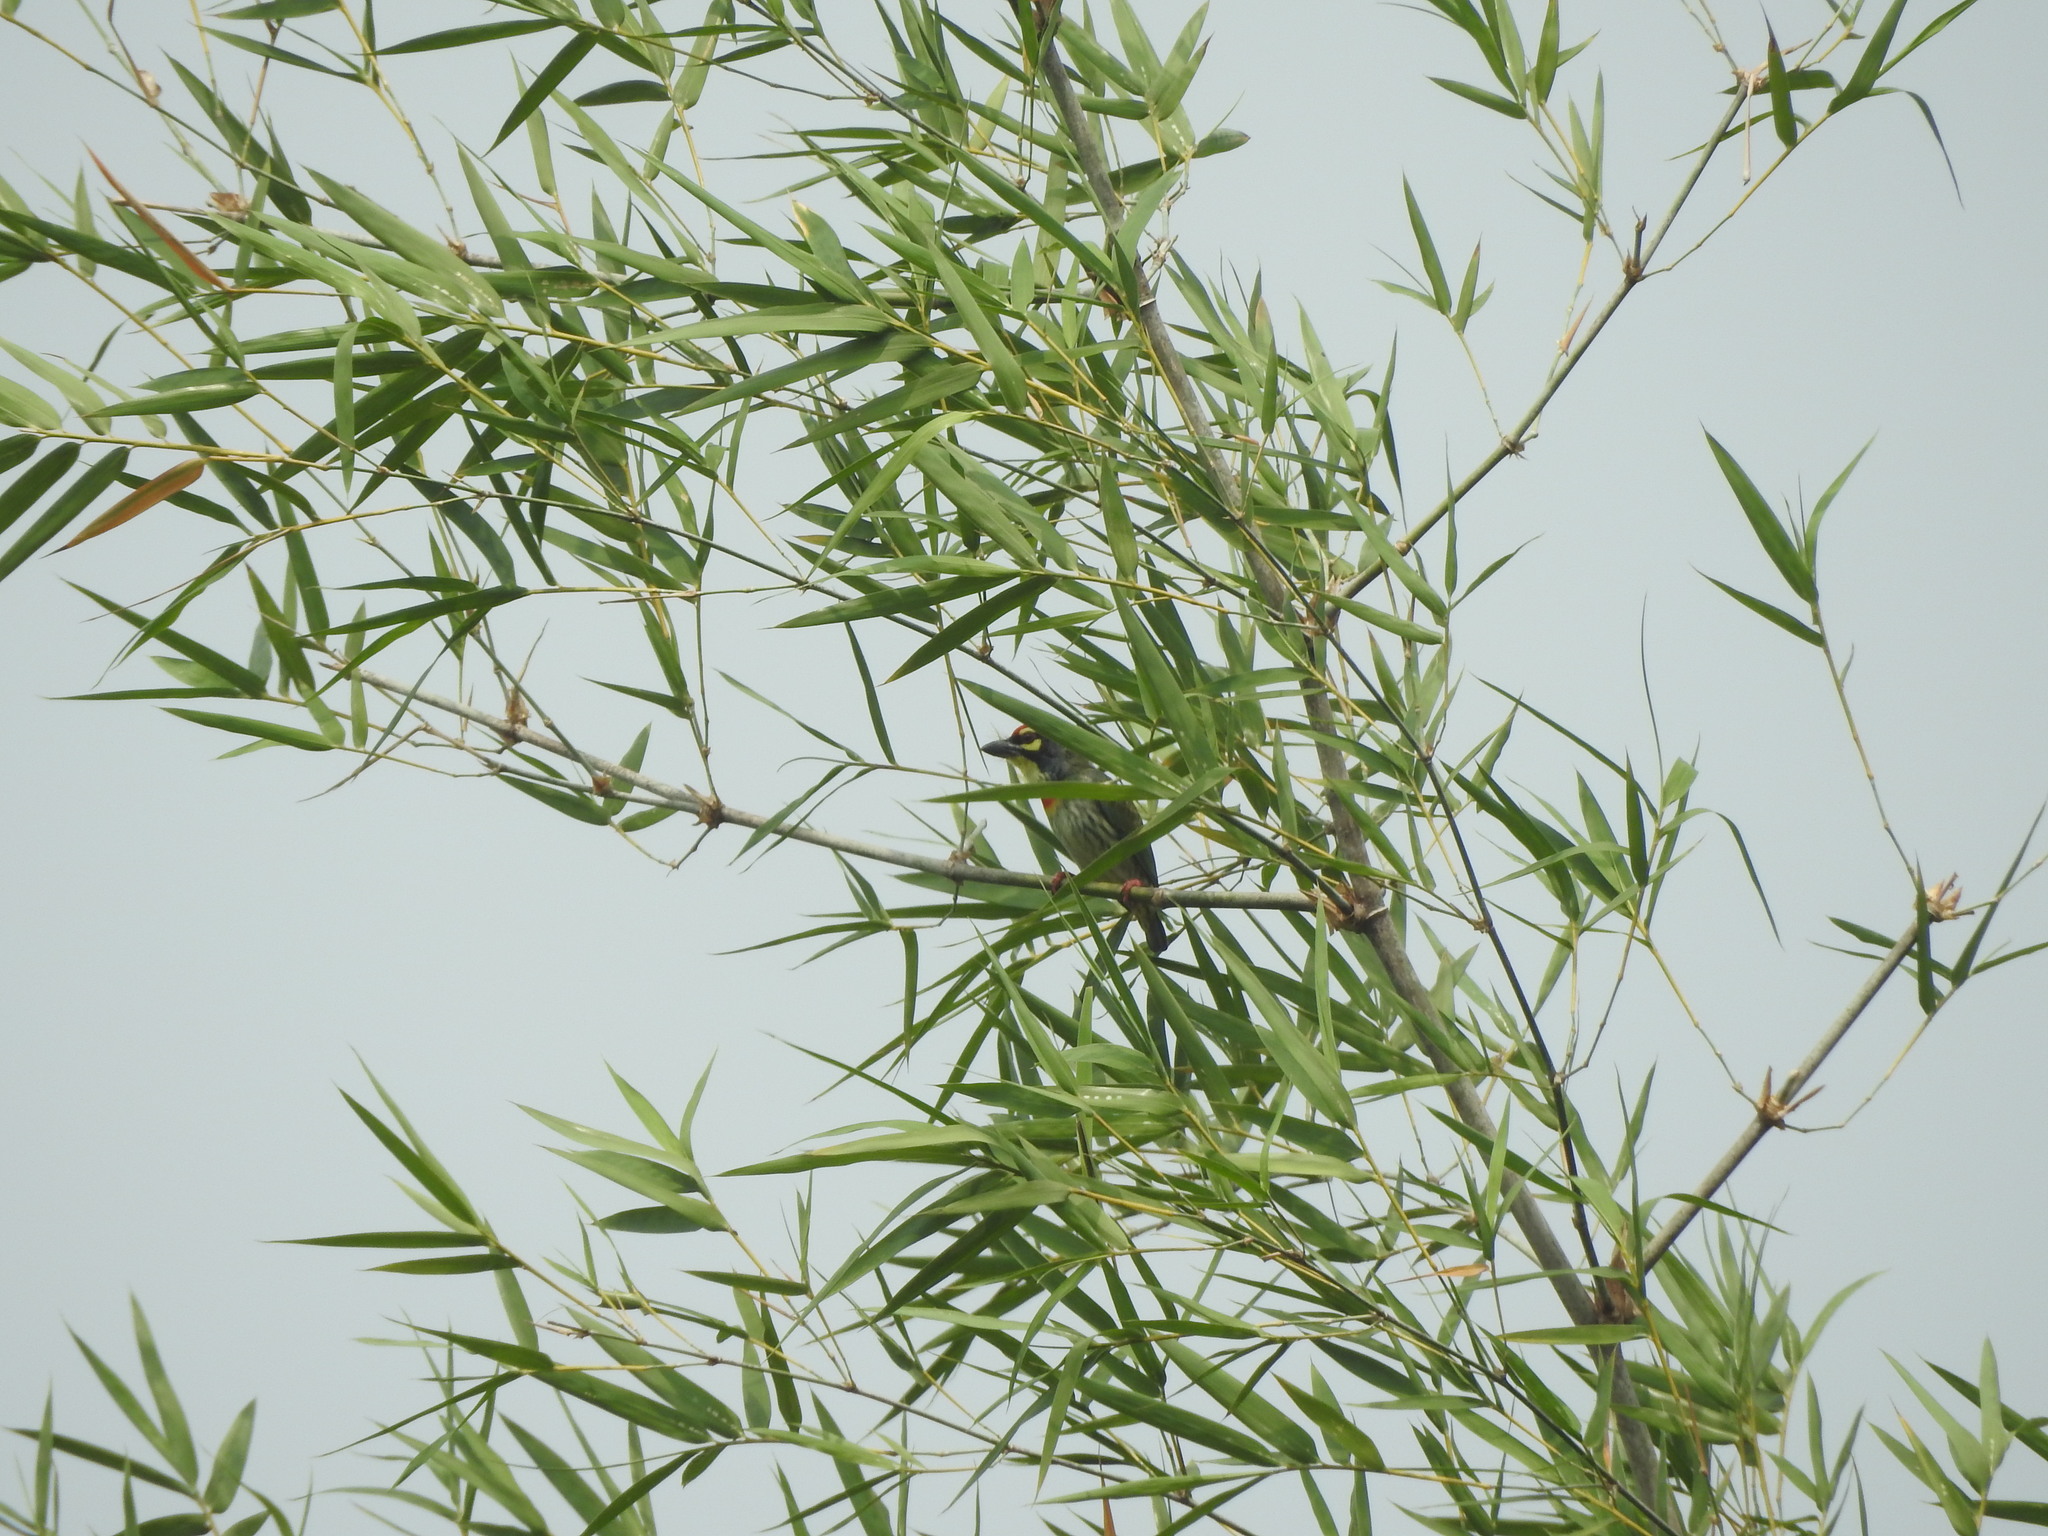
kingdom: Animalia
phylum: Chordata
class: Aves
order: Piciformes
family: Megalaimidae
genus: Psilopogon
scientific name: Psilopogon haemacephalus
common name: Coppersmith barbet
